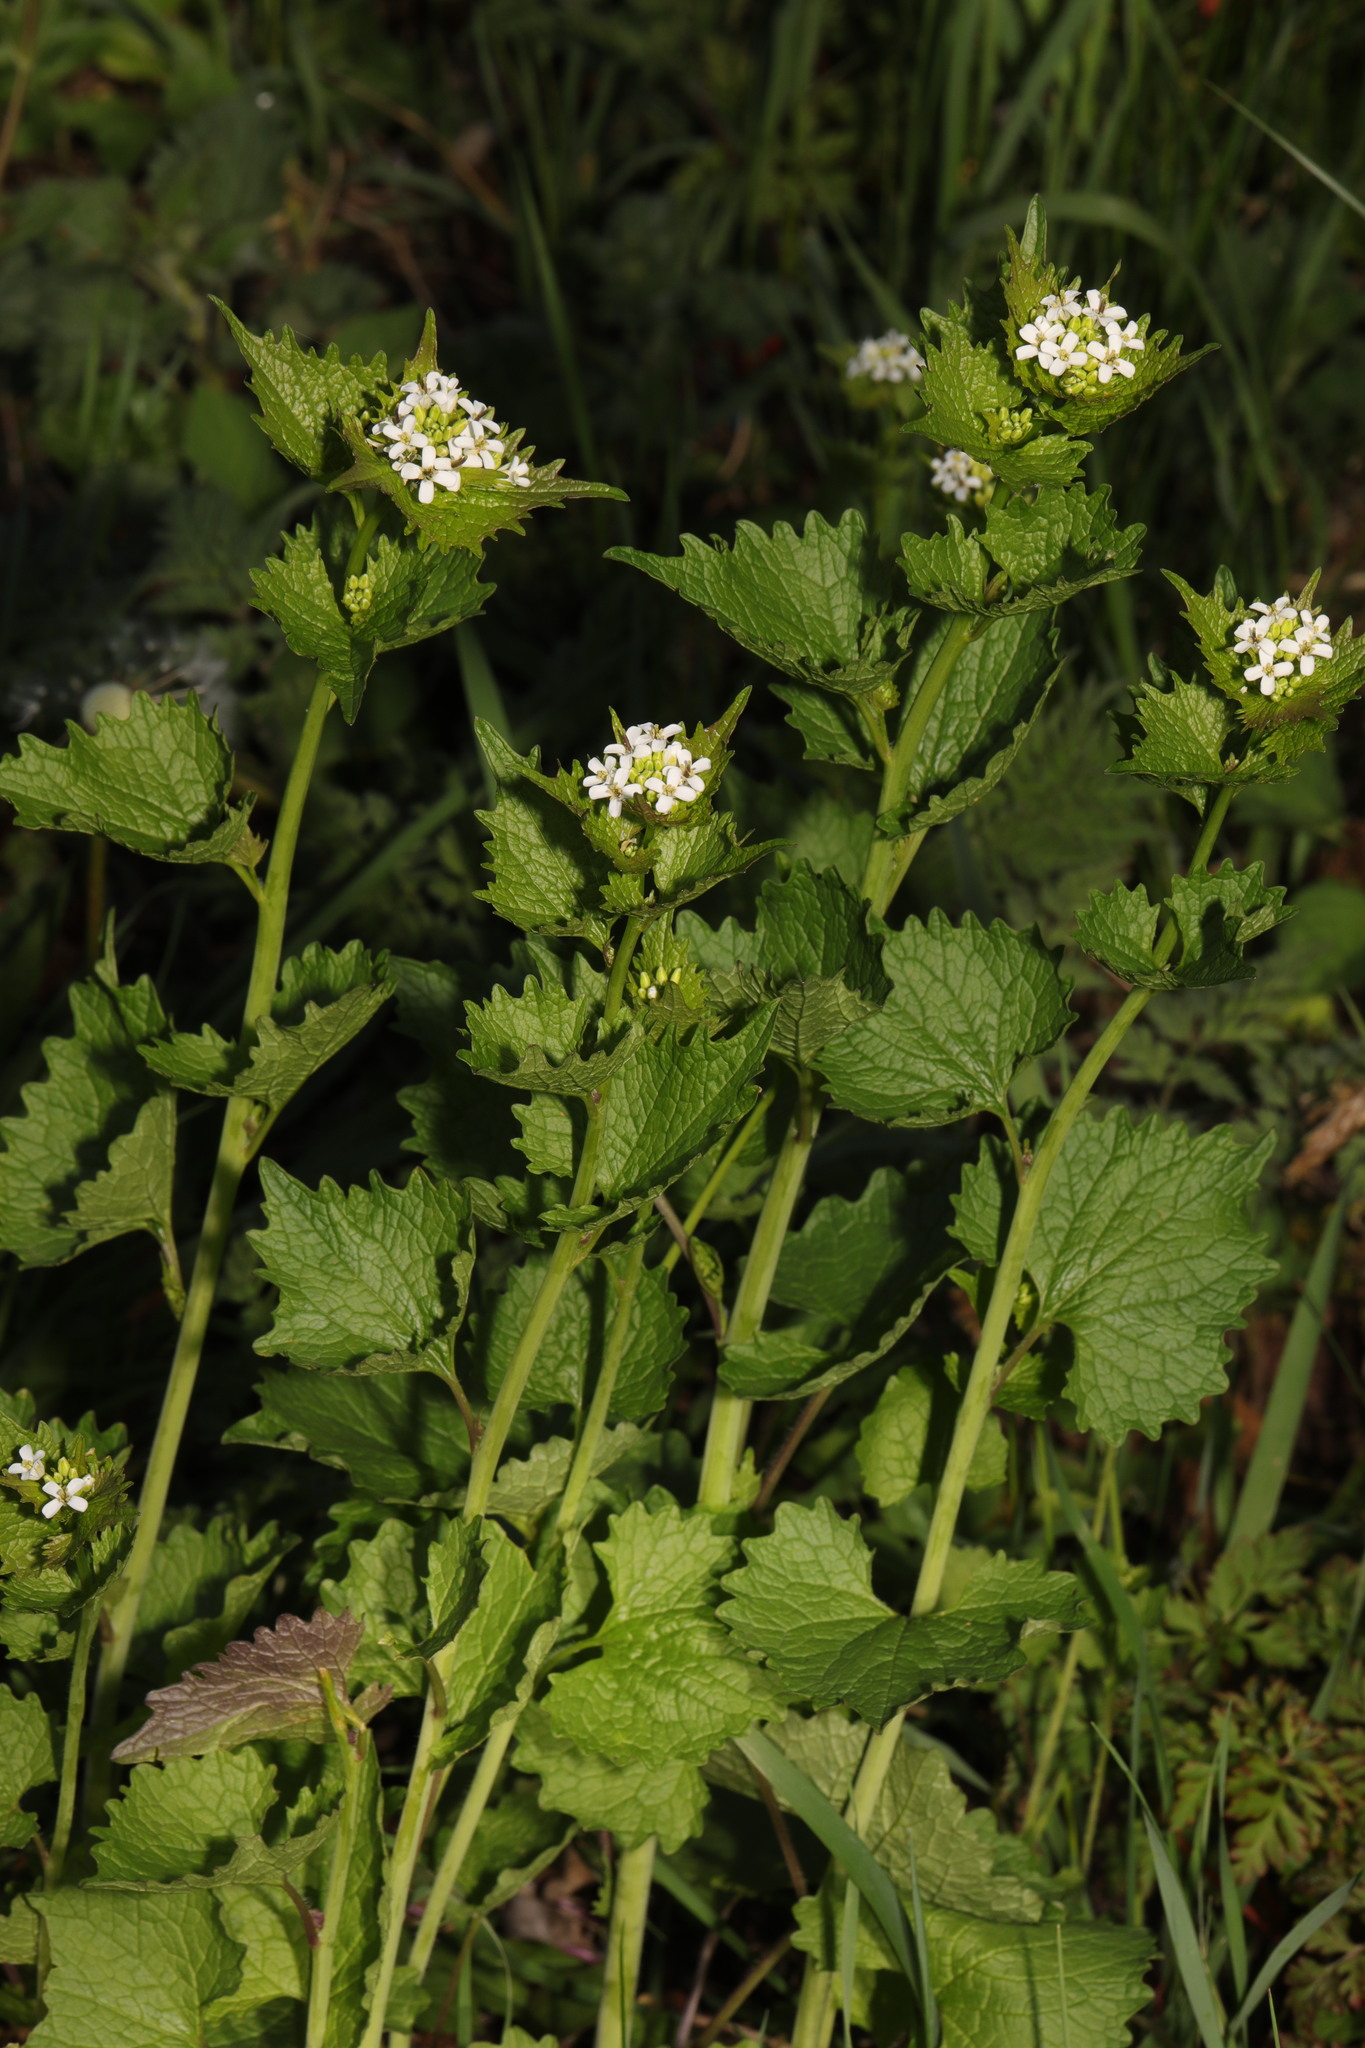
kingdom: Plantae
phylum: Tracheophyta
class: Magnoliopsida
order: Brassicales
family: Brassicaceae
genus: Alliaria
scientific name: Alliaria petiolata
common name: Garlic mustard
